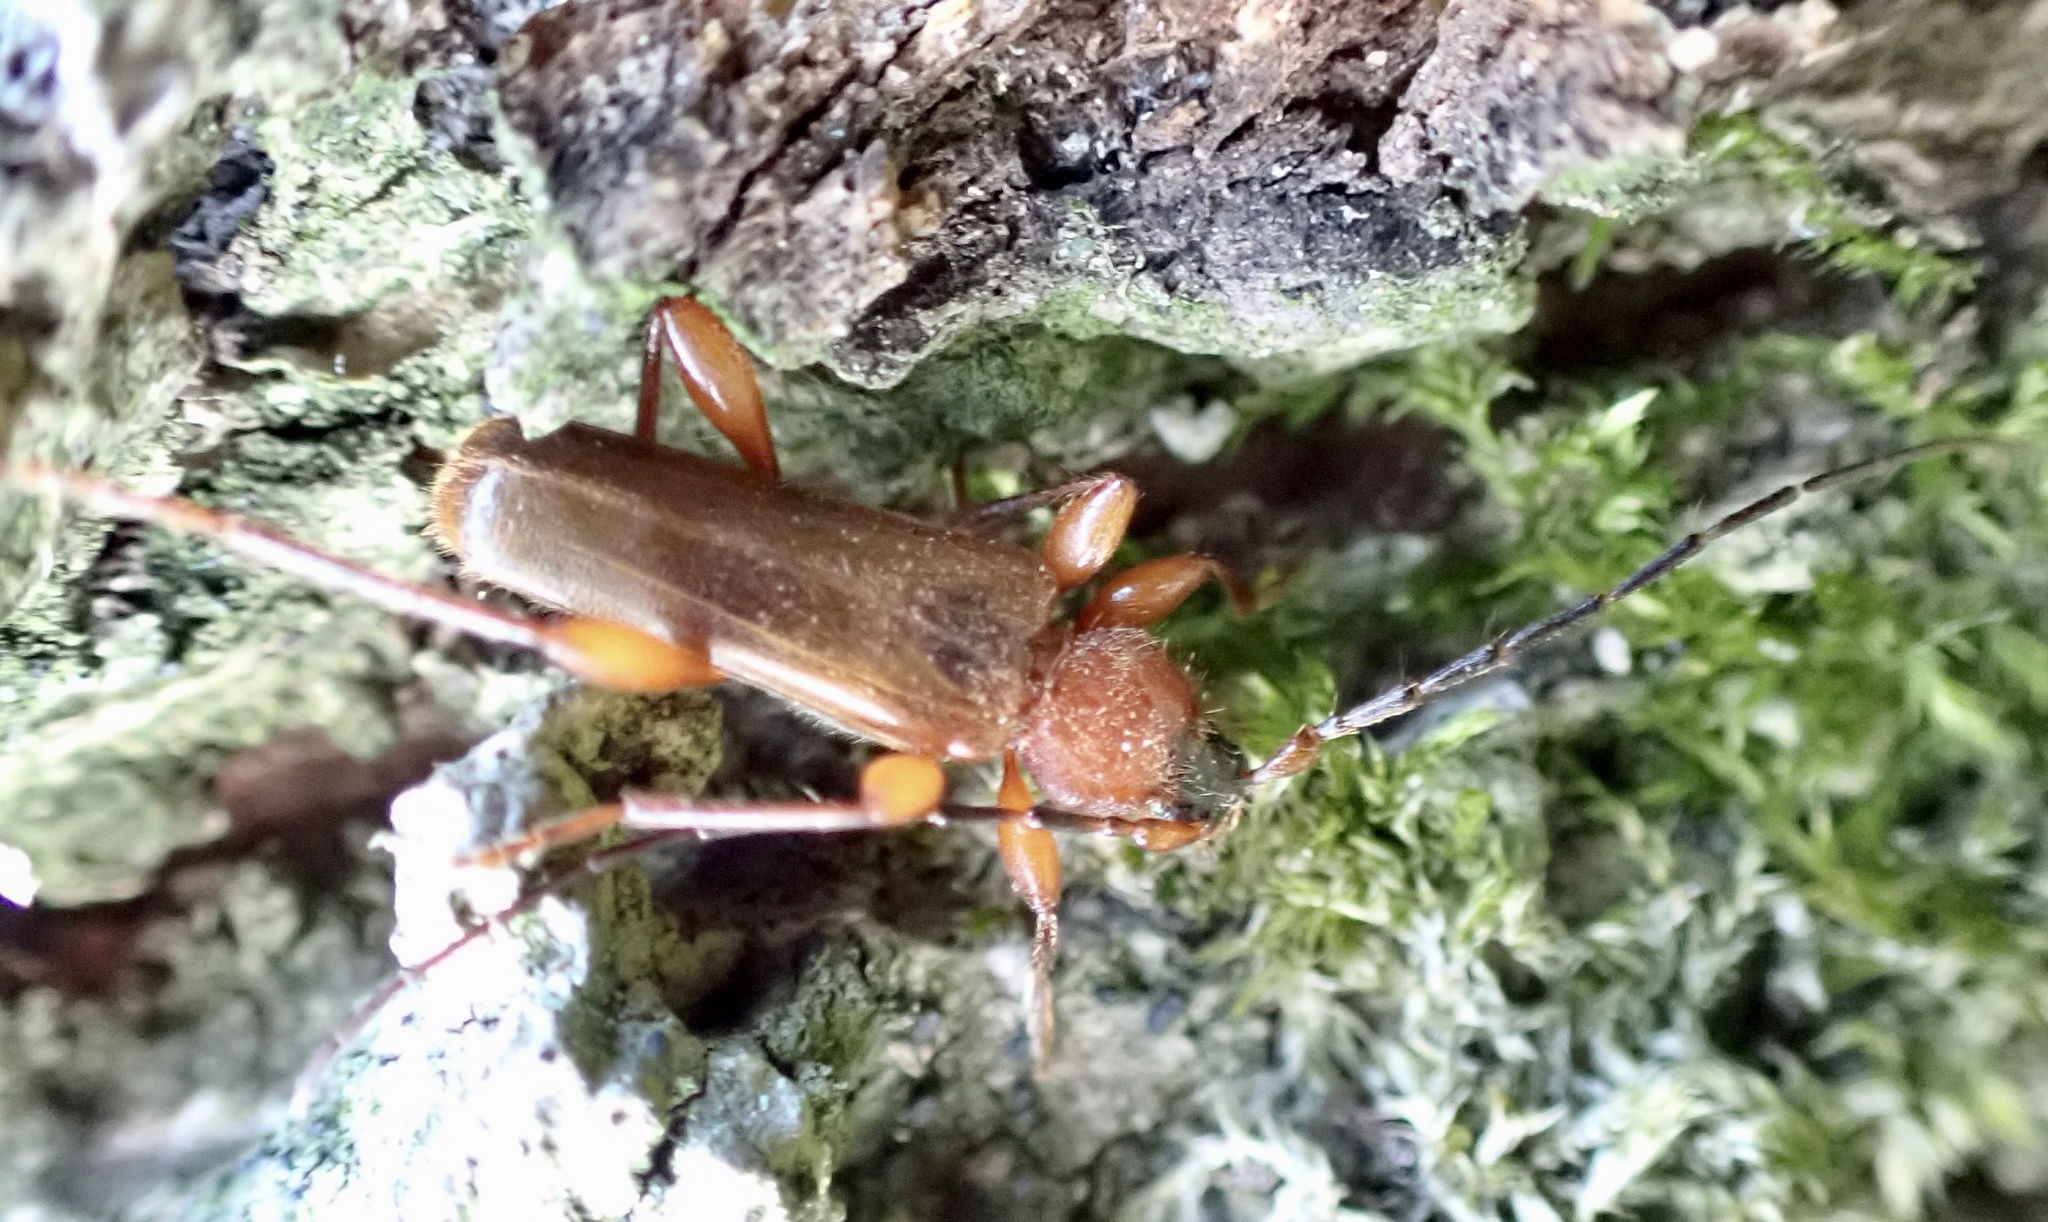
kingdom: Animalia
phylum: Arthropoda
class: Insecta
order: Coleoptera
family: Cerambycidae
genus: Phymatodes
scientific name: Phymatodes testaceus
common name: Long-horned beetle
